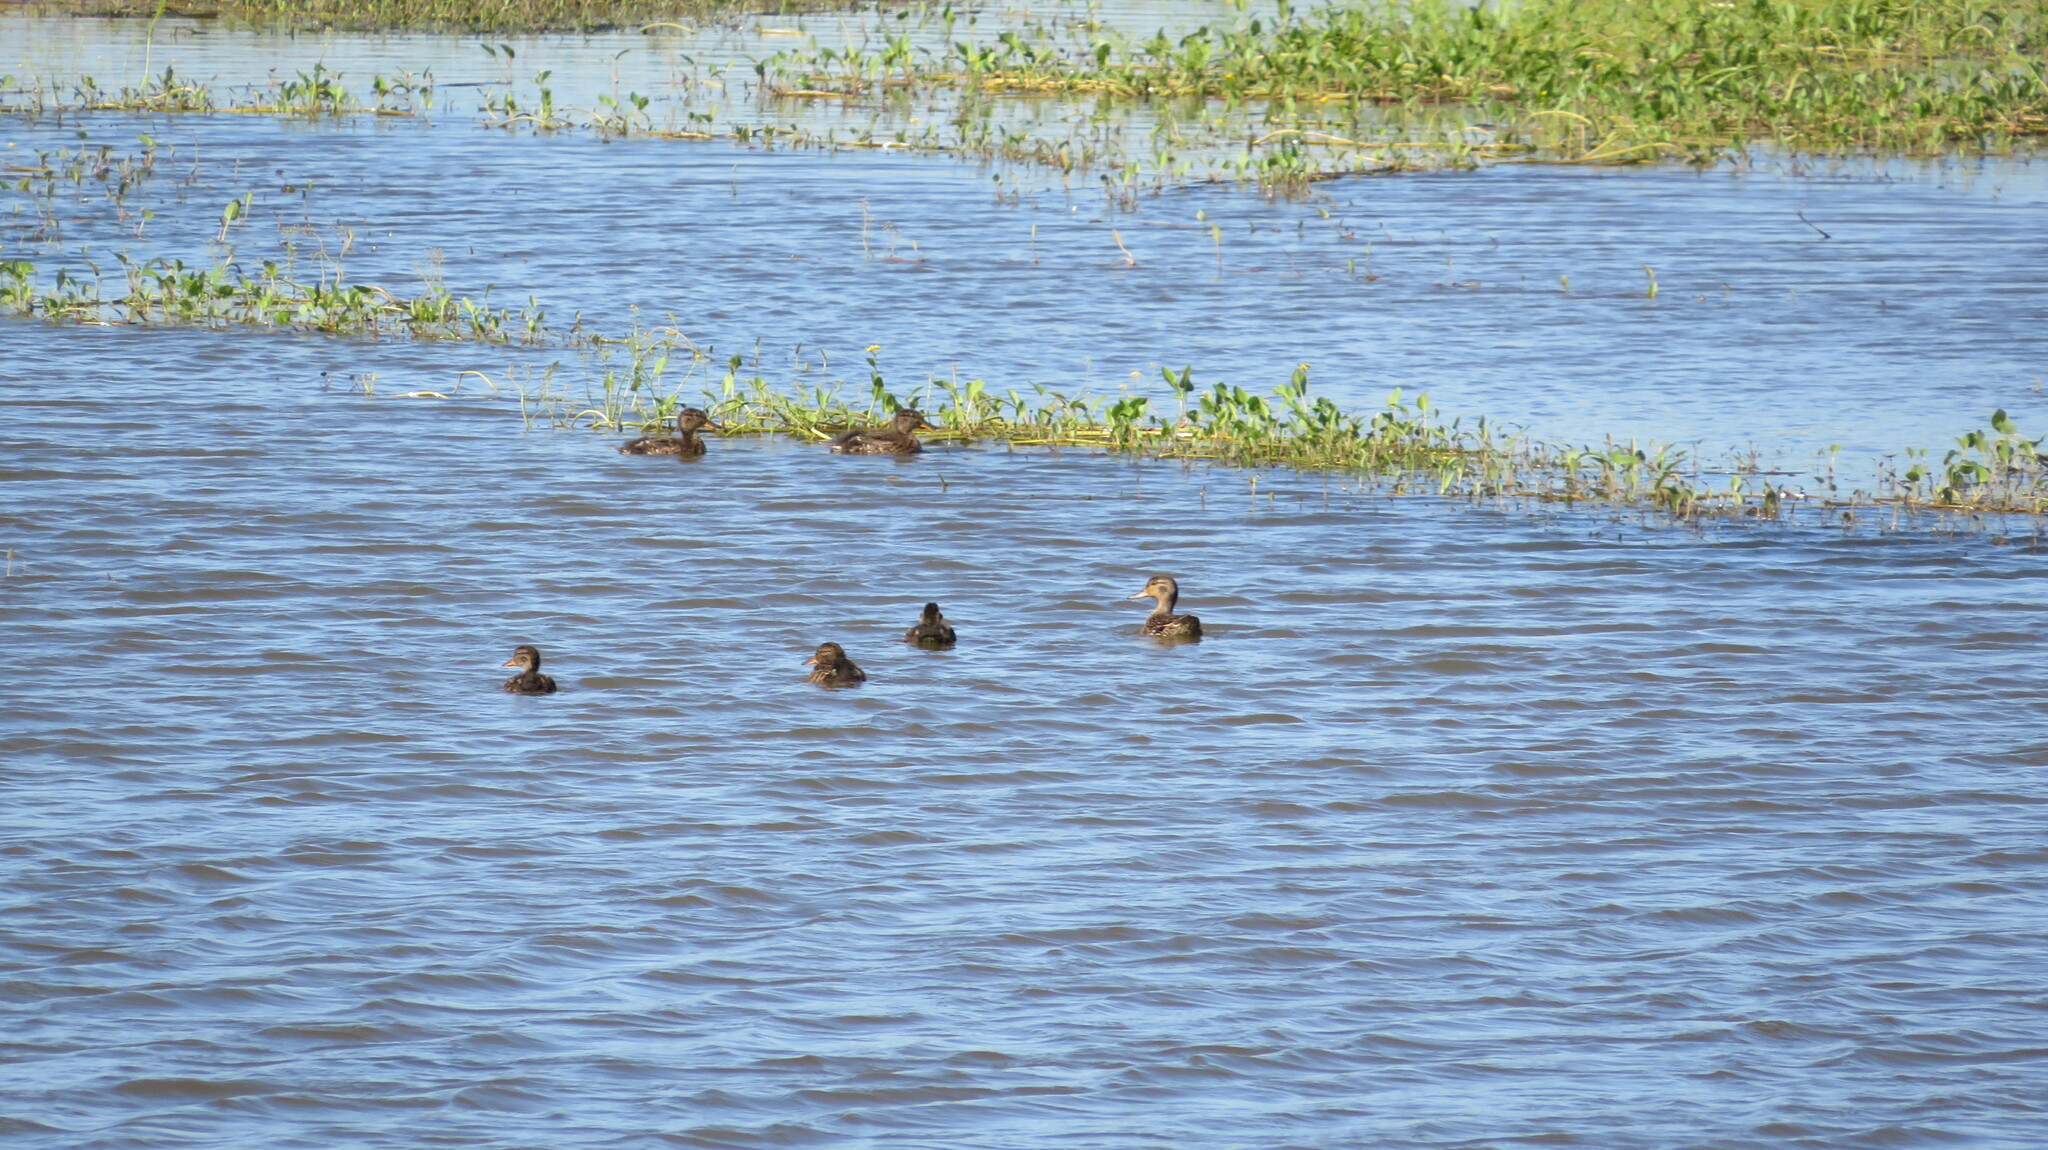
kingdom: Animalia
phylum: Chordata
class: Aves
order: Anseriformes
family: Anatidae
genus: Anas
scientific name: Anas crecca
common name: Eurasian teal
